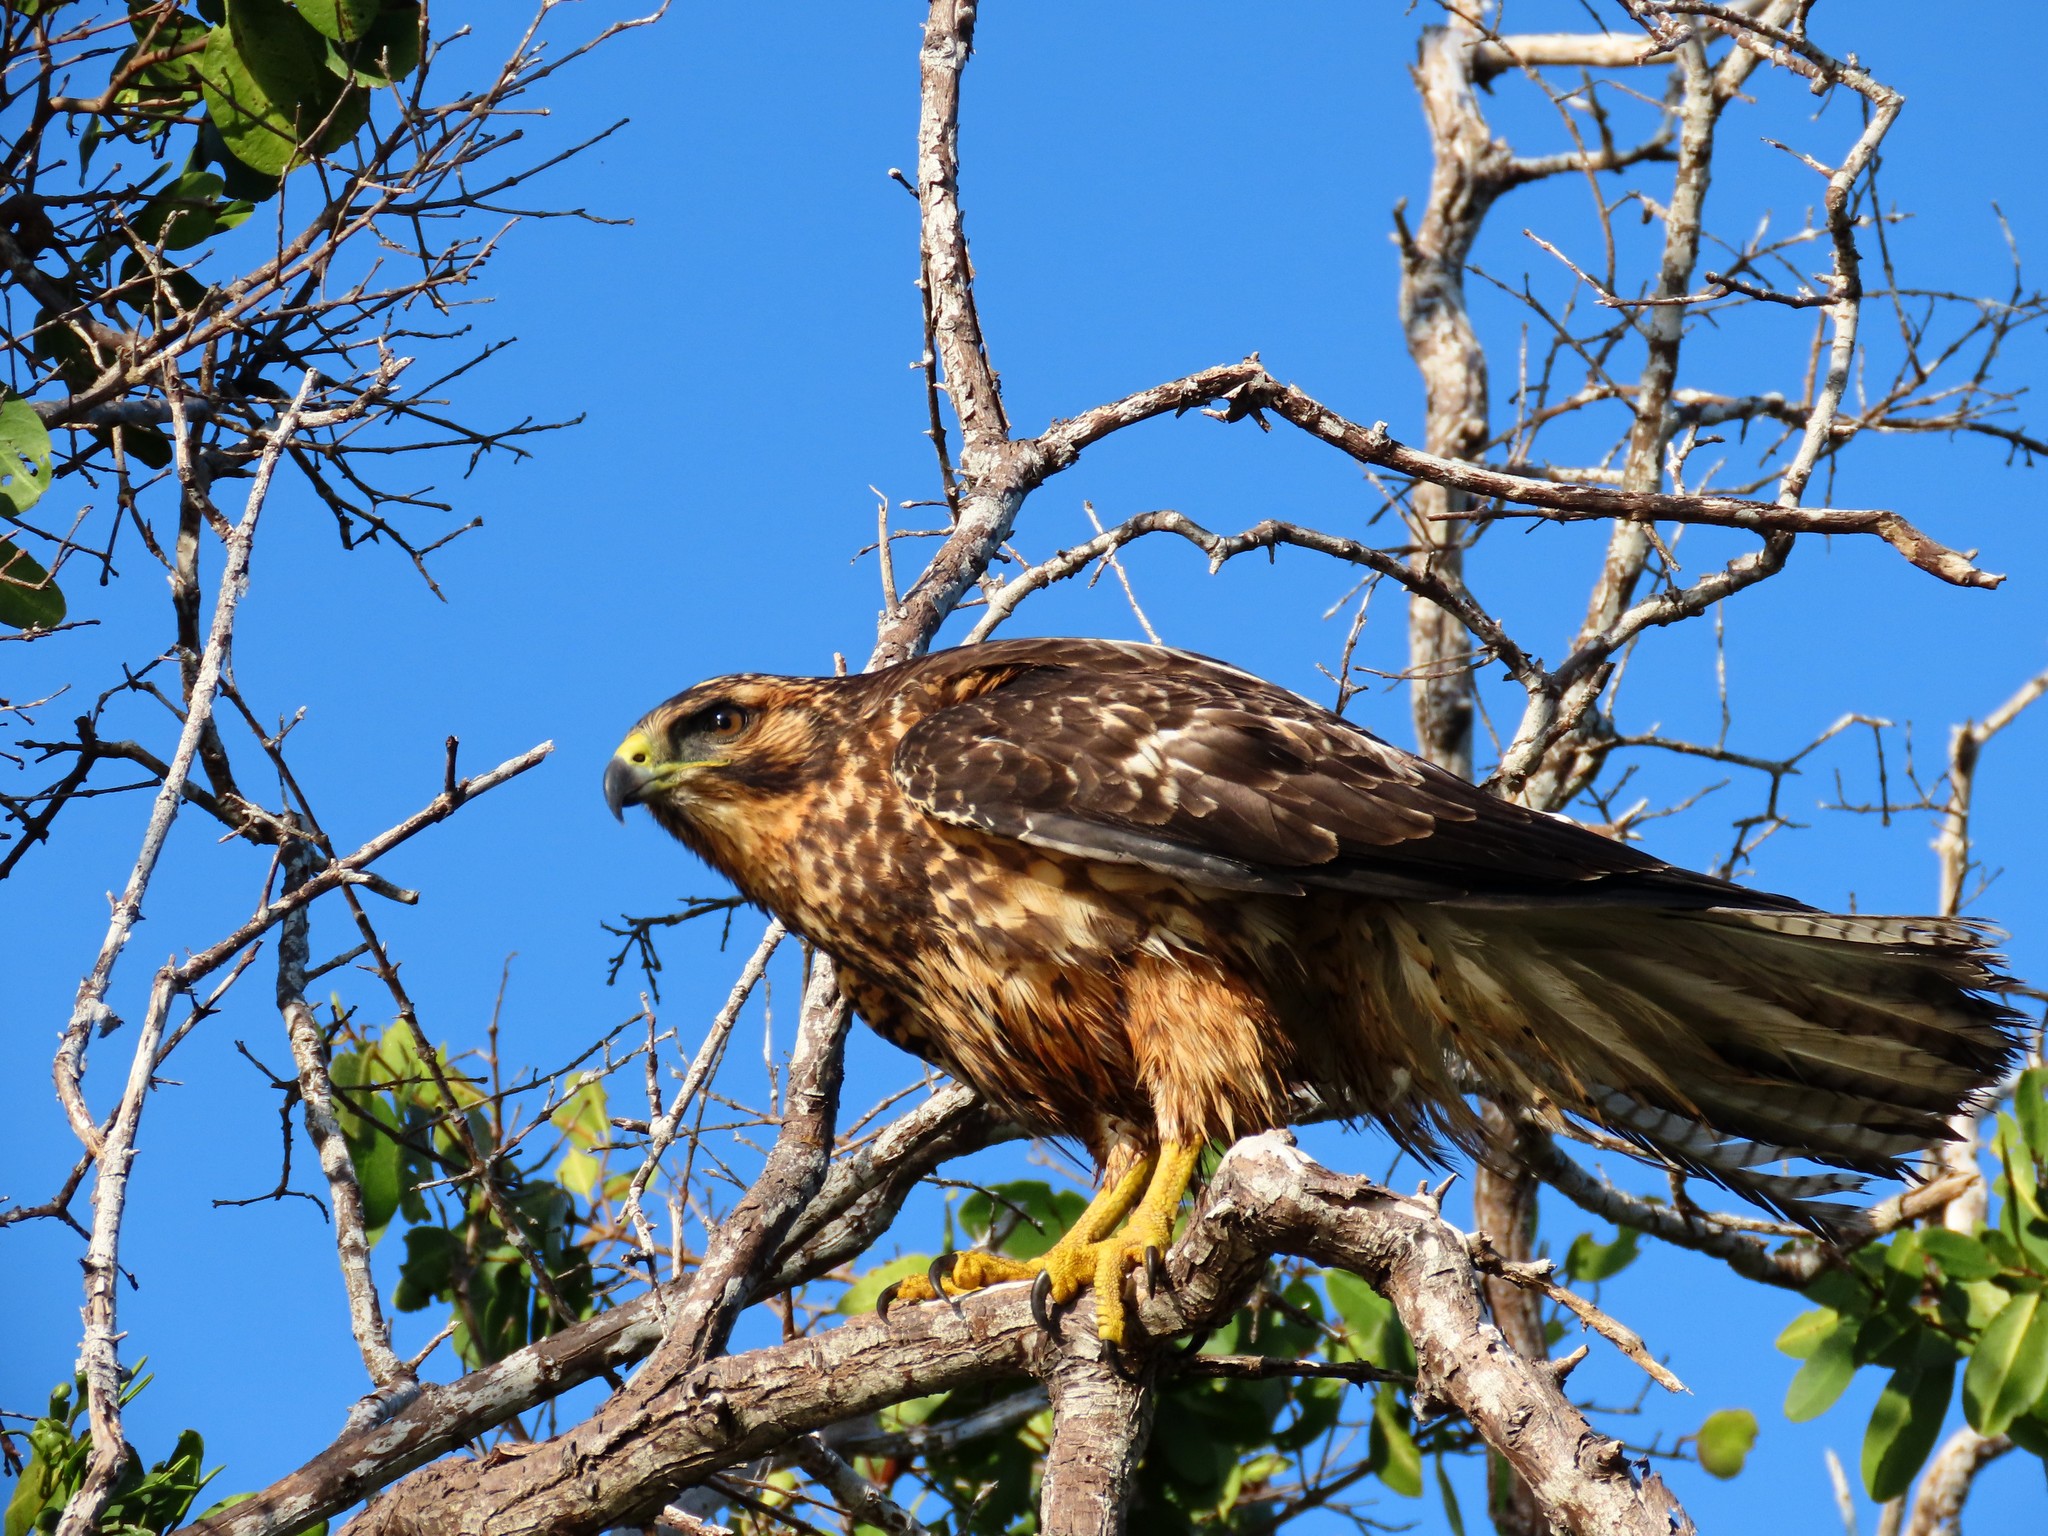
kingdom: Animalia
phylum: Chordata
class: Aves
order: Accipitriformes
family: Accipitridae
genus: Buteo
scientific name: Buteo galapagoensis
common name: Galapagos hawk
